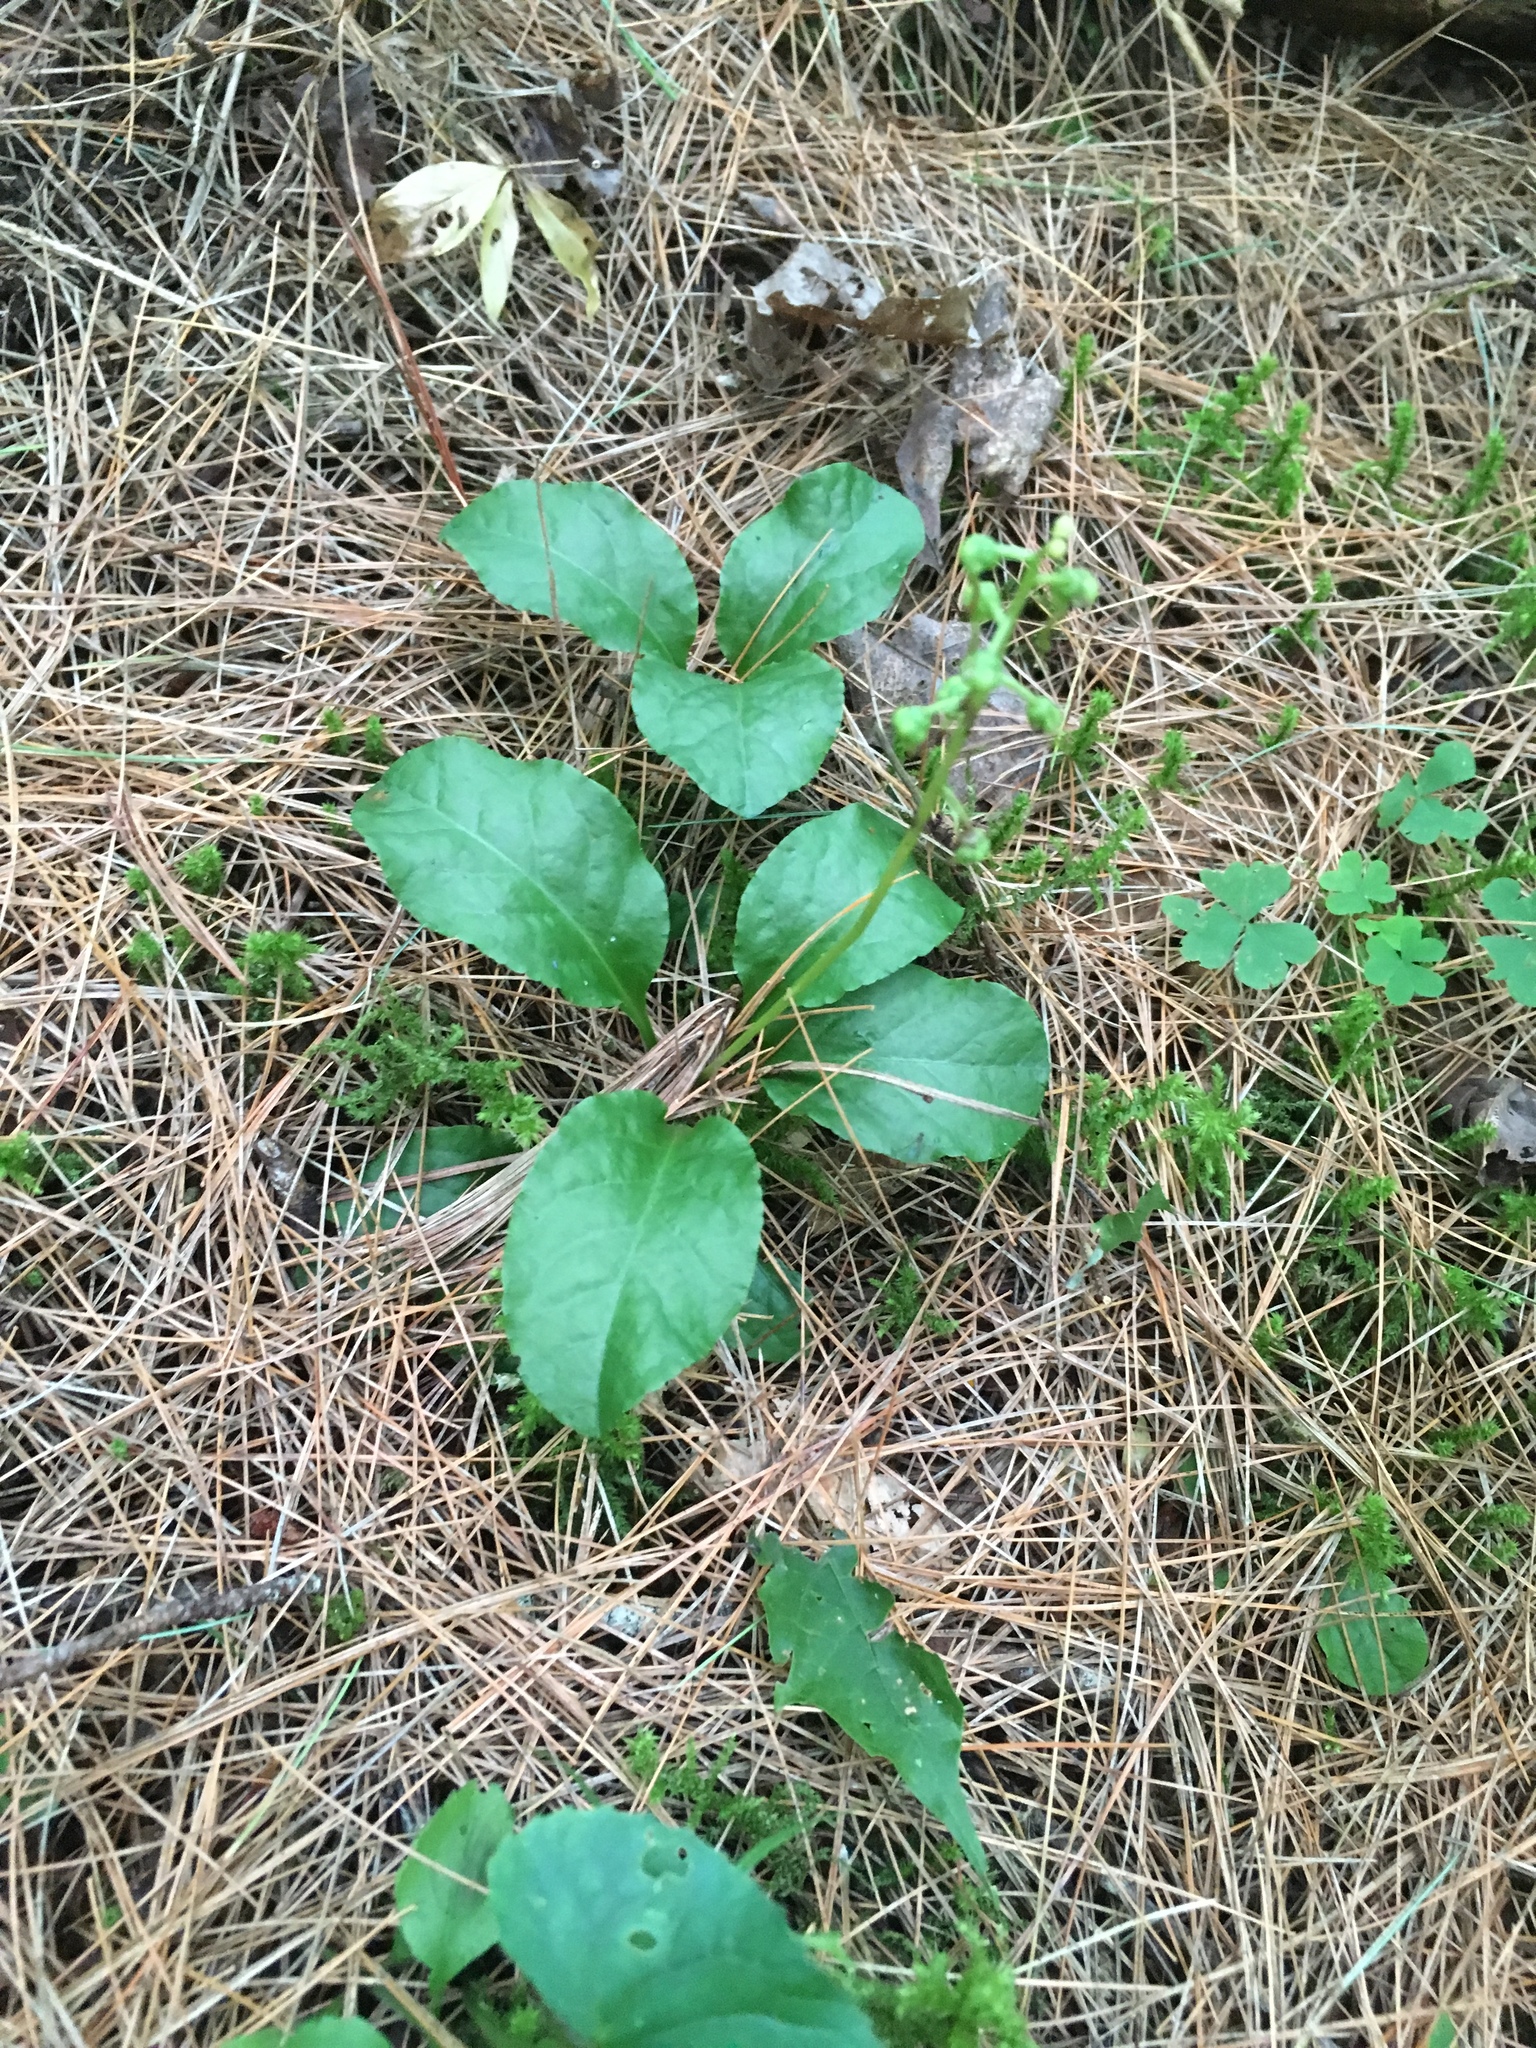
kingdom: Plantae
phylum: Tracheophyta
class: Magnoliopsida
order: Ericales
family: Ericaceae
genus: Pyrola
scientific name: Pyrola elliptica
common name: Shinleaf
